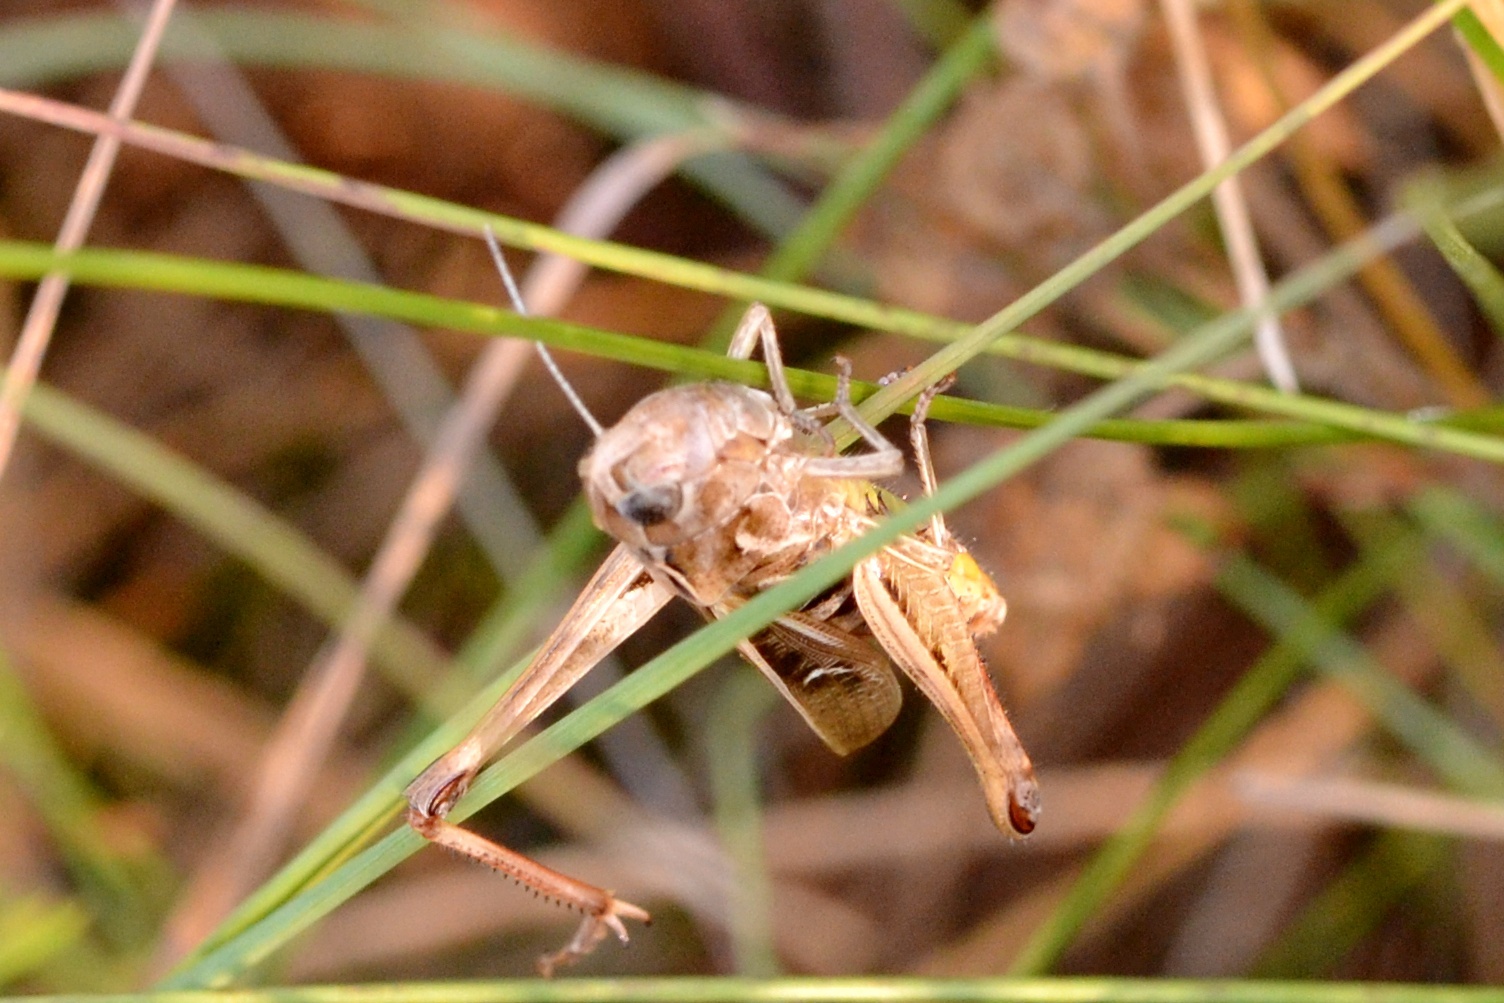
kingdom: Animalia
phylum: Arthropoda
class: Insecta
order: Orthoptera
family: Acrididae
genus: Stenobothrus
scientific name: Stenobothrus lineatus
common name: Stripe-winged grasshopper
